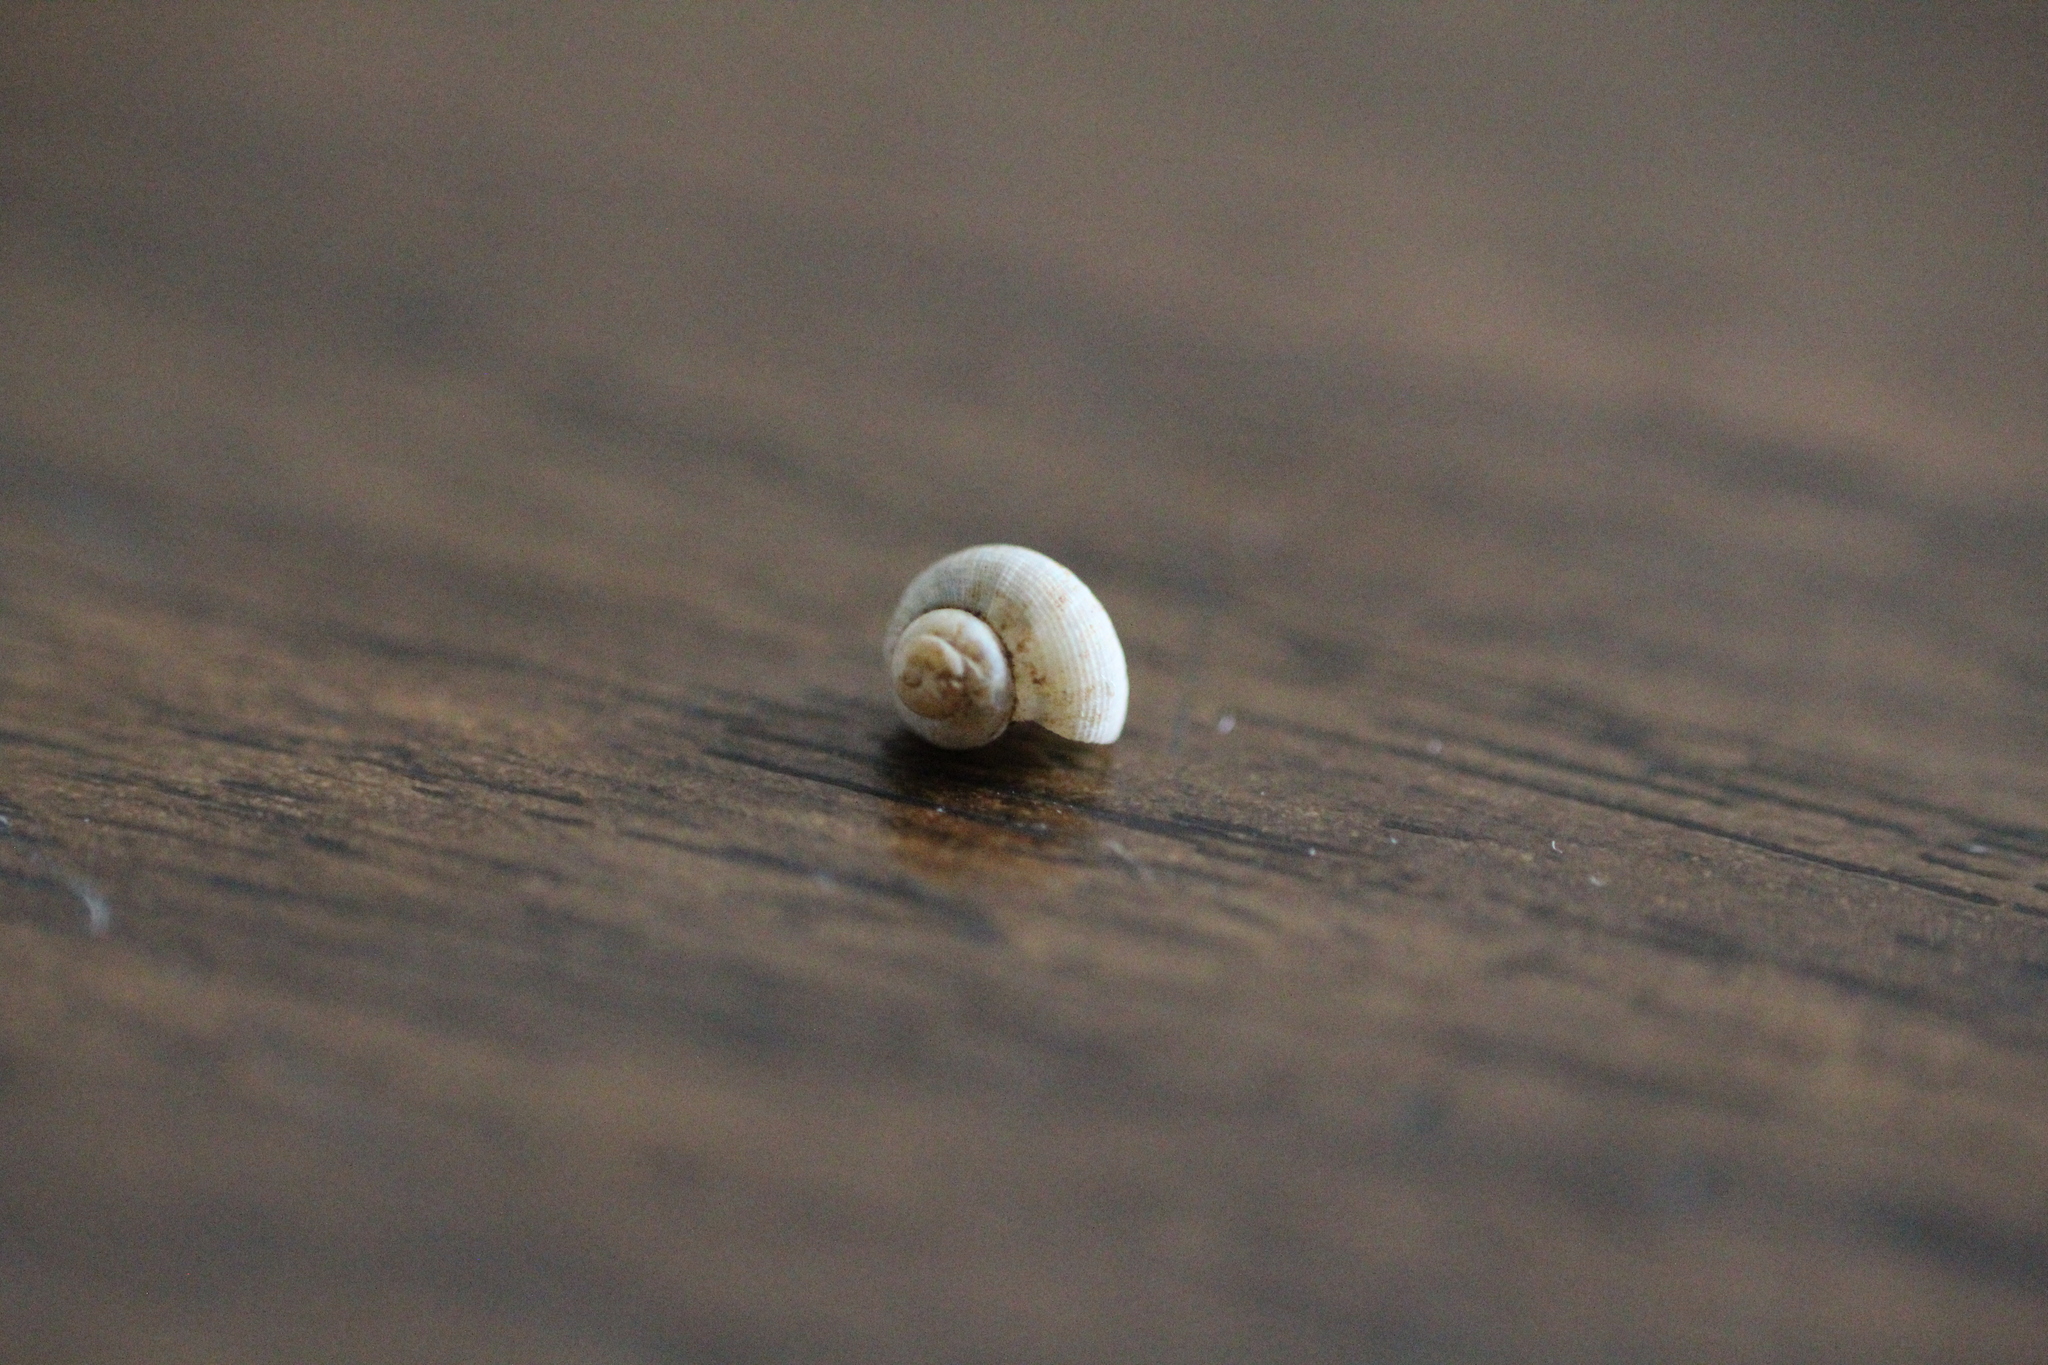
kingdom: Animalia
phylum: Mollusca
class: Gastropoda
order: Littorinimorpha
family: Pomatiidae
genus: Pomatias
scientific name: Pomatias elegans
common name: Red-mouthed snail
